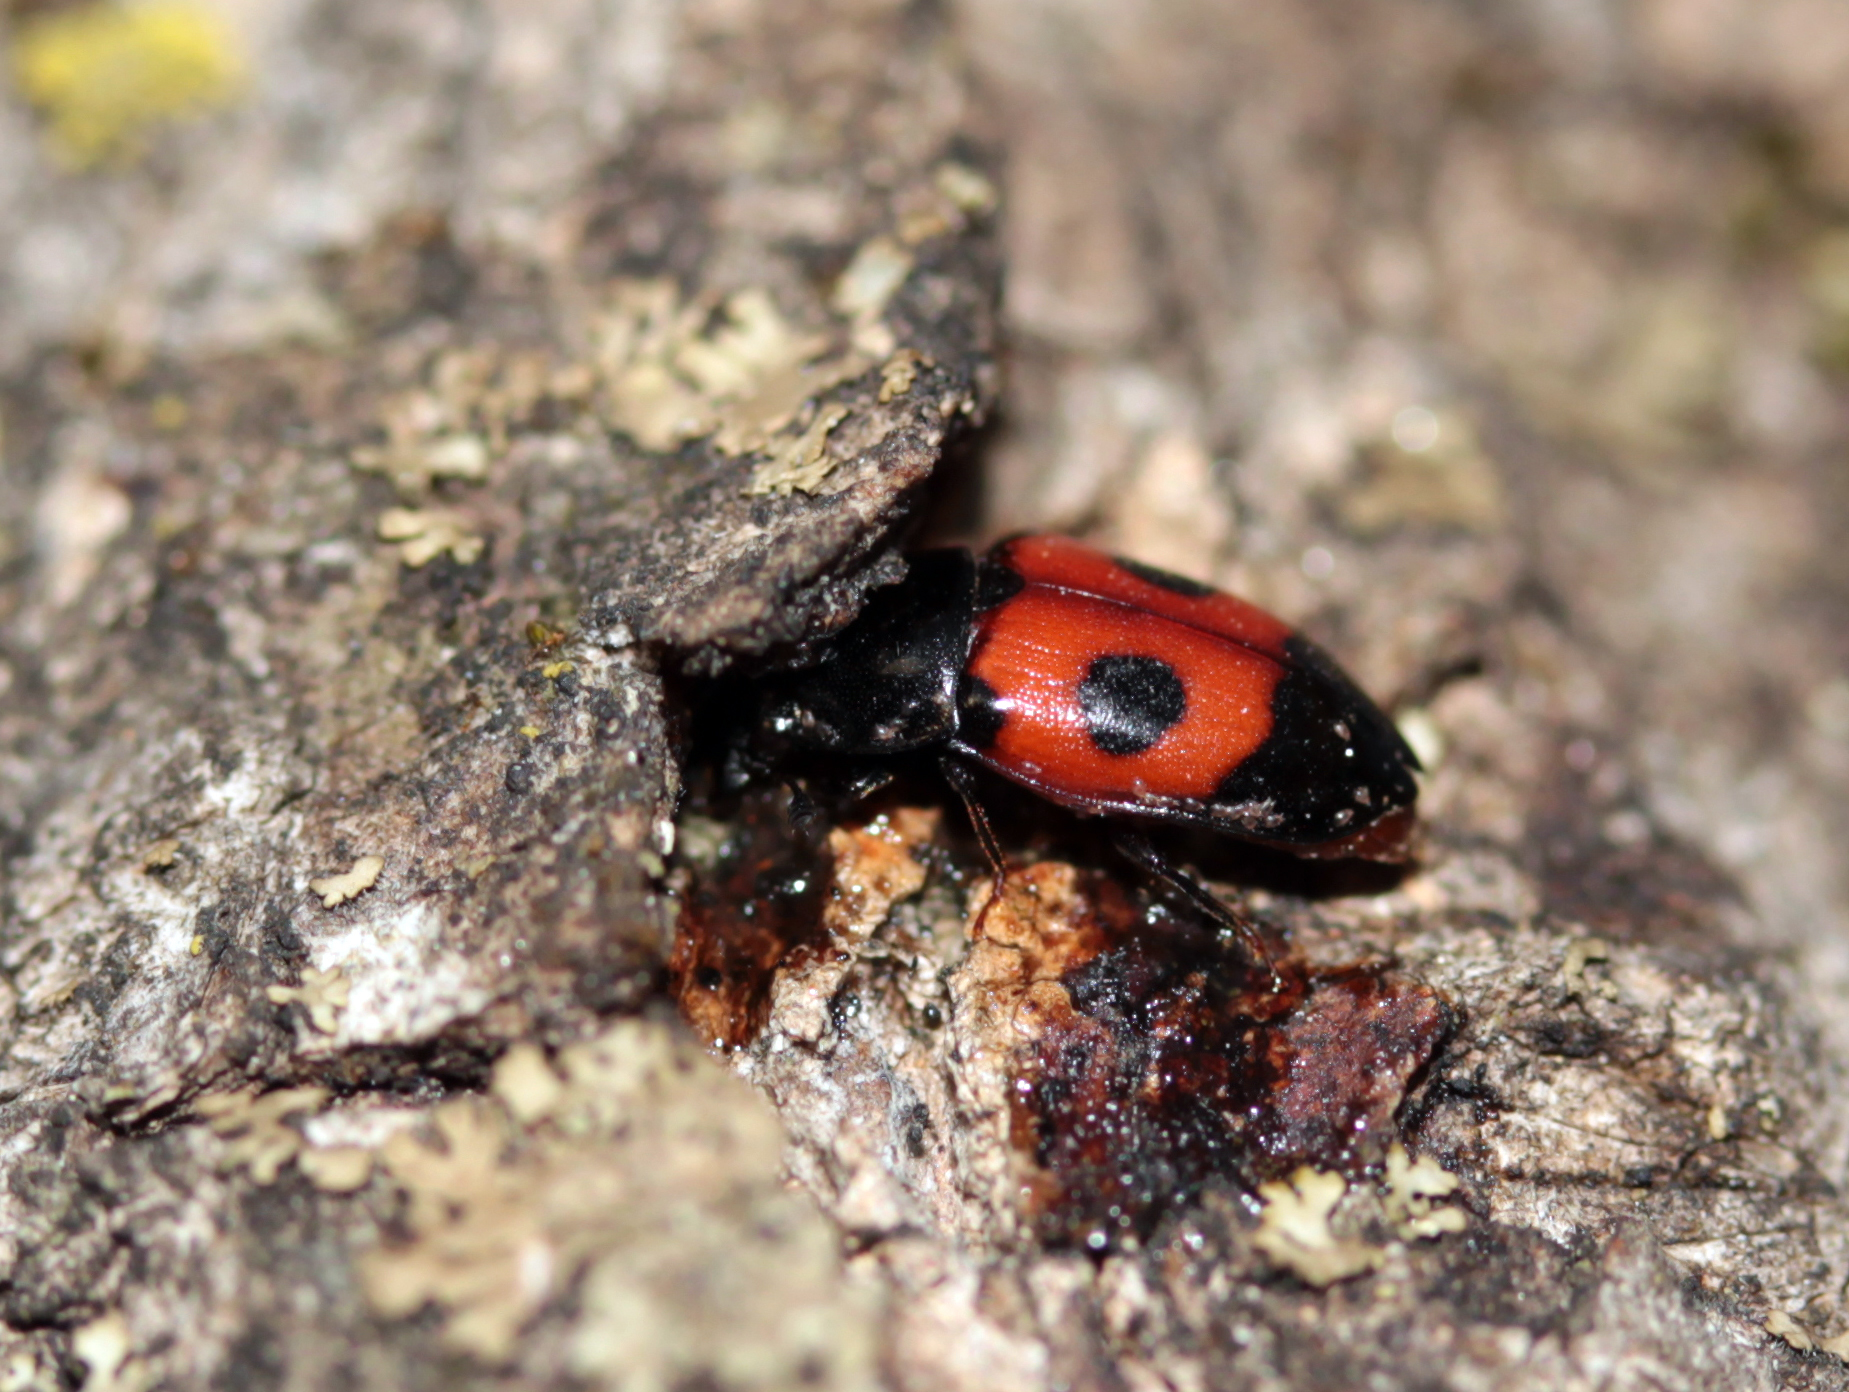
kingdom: Animalia
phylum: Arthropoda
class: Insecta
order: Coleoptera
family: Nitidulidae
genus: Glischrochilus
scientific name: Glischrochilus sanguinolentus
